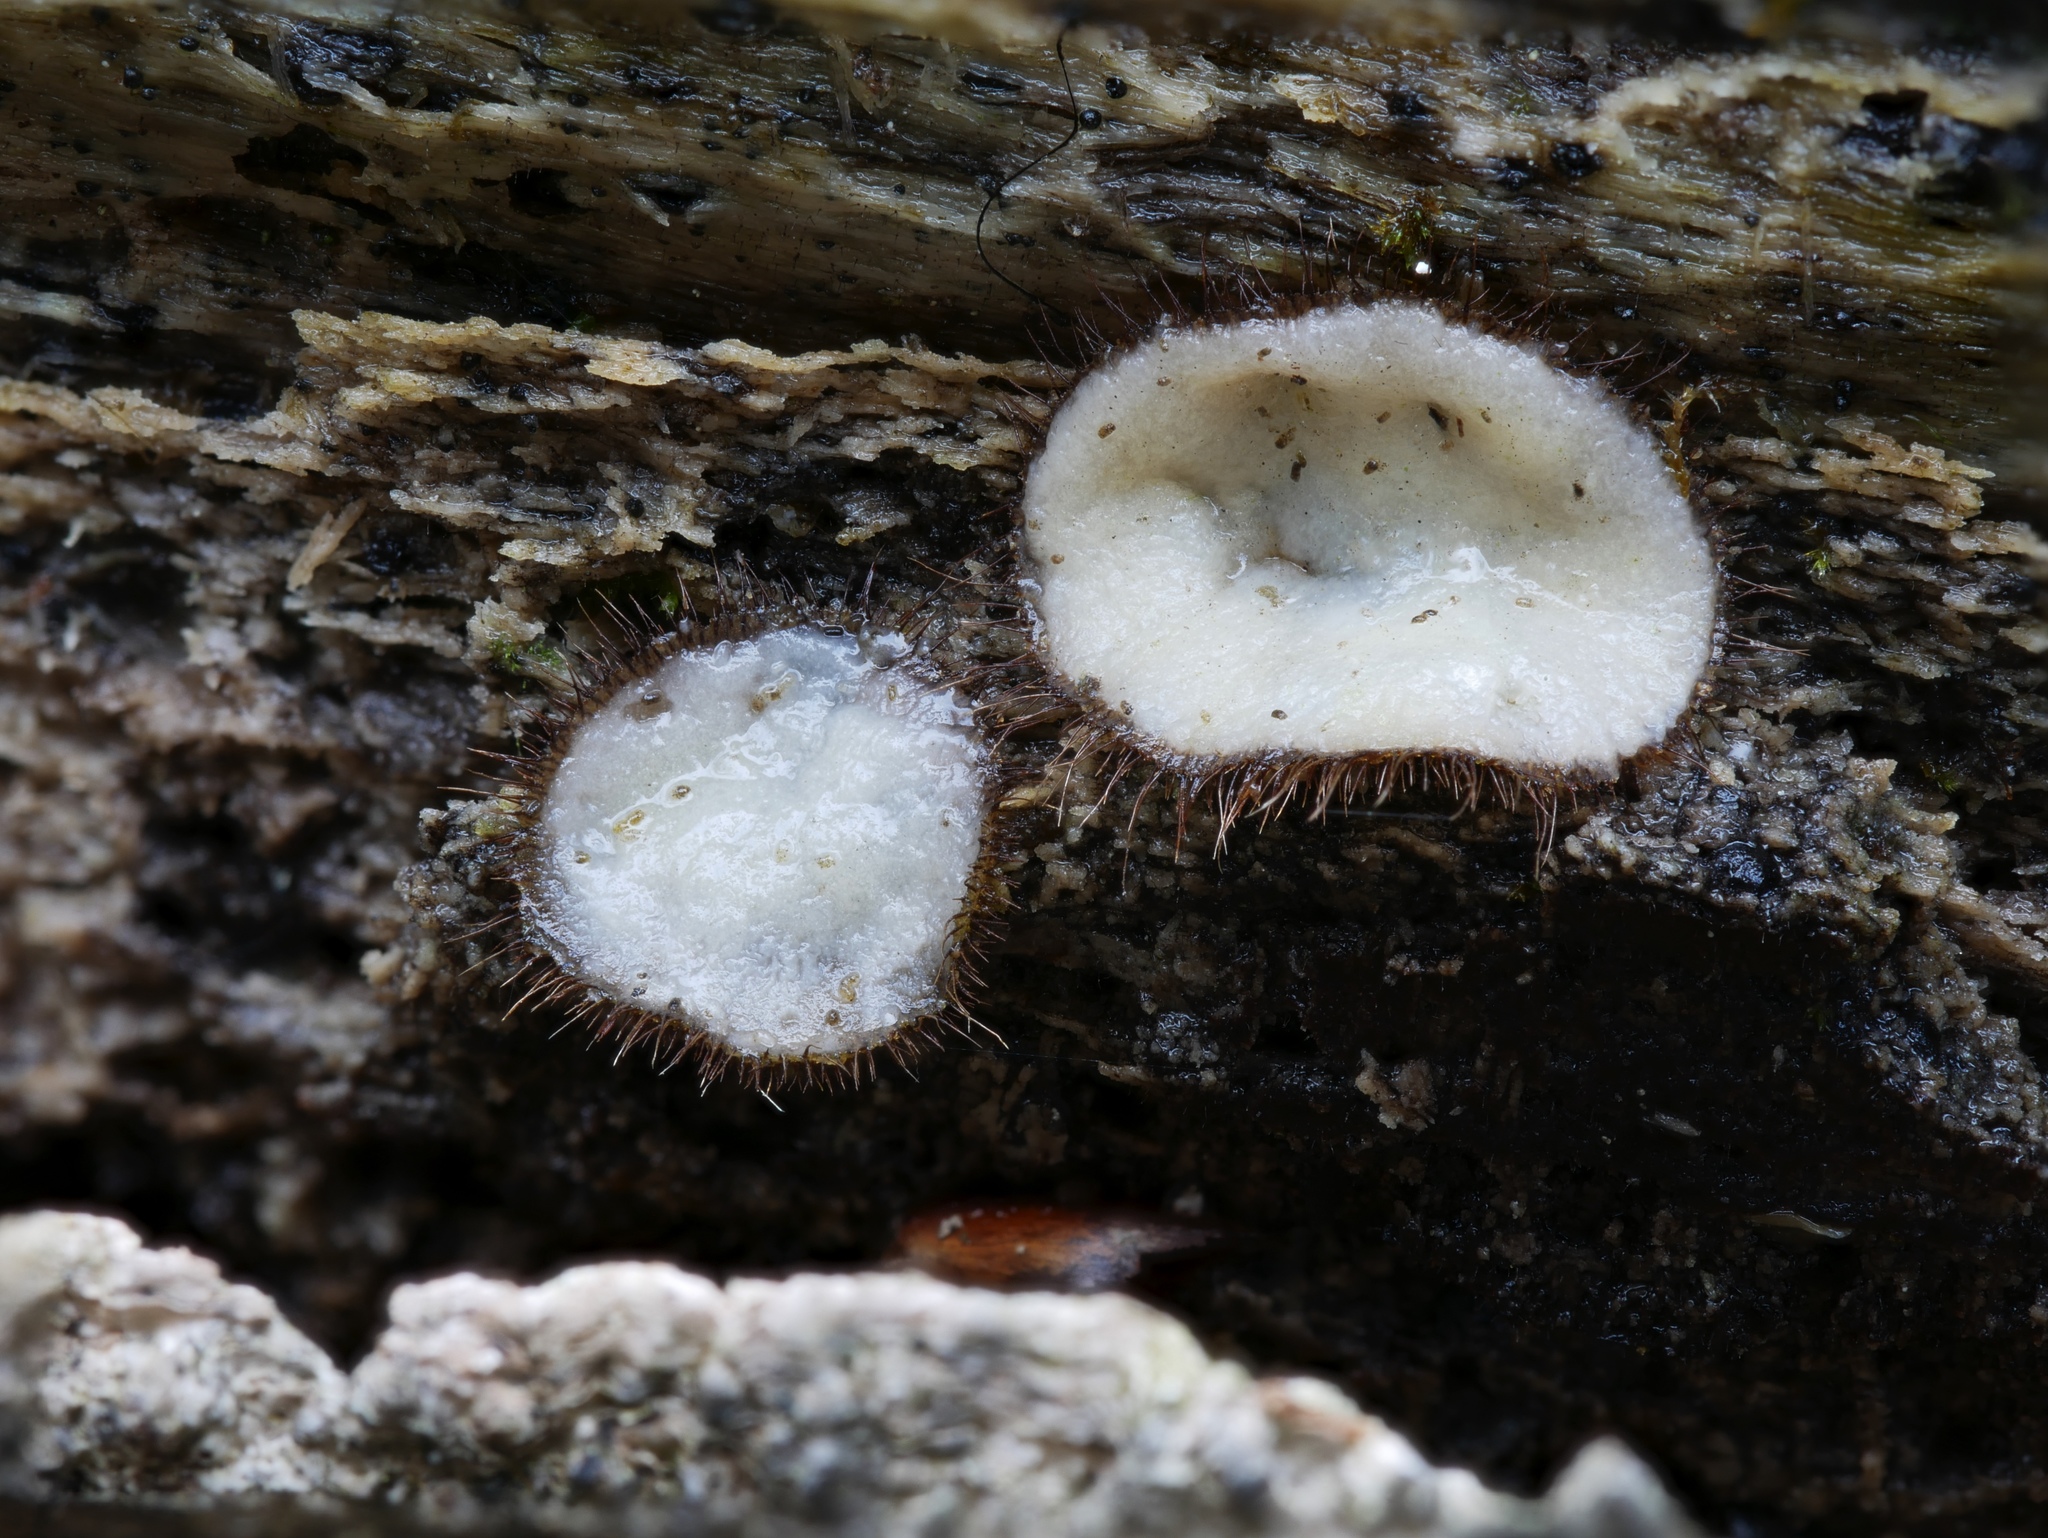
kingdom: Fungi
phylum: Ascomycota
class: Pezizomycetes
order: Pezizales
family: Pyronemataceae
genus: Scutellinia
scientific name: Scutellinia pennsylvanica
